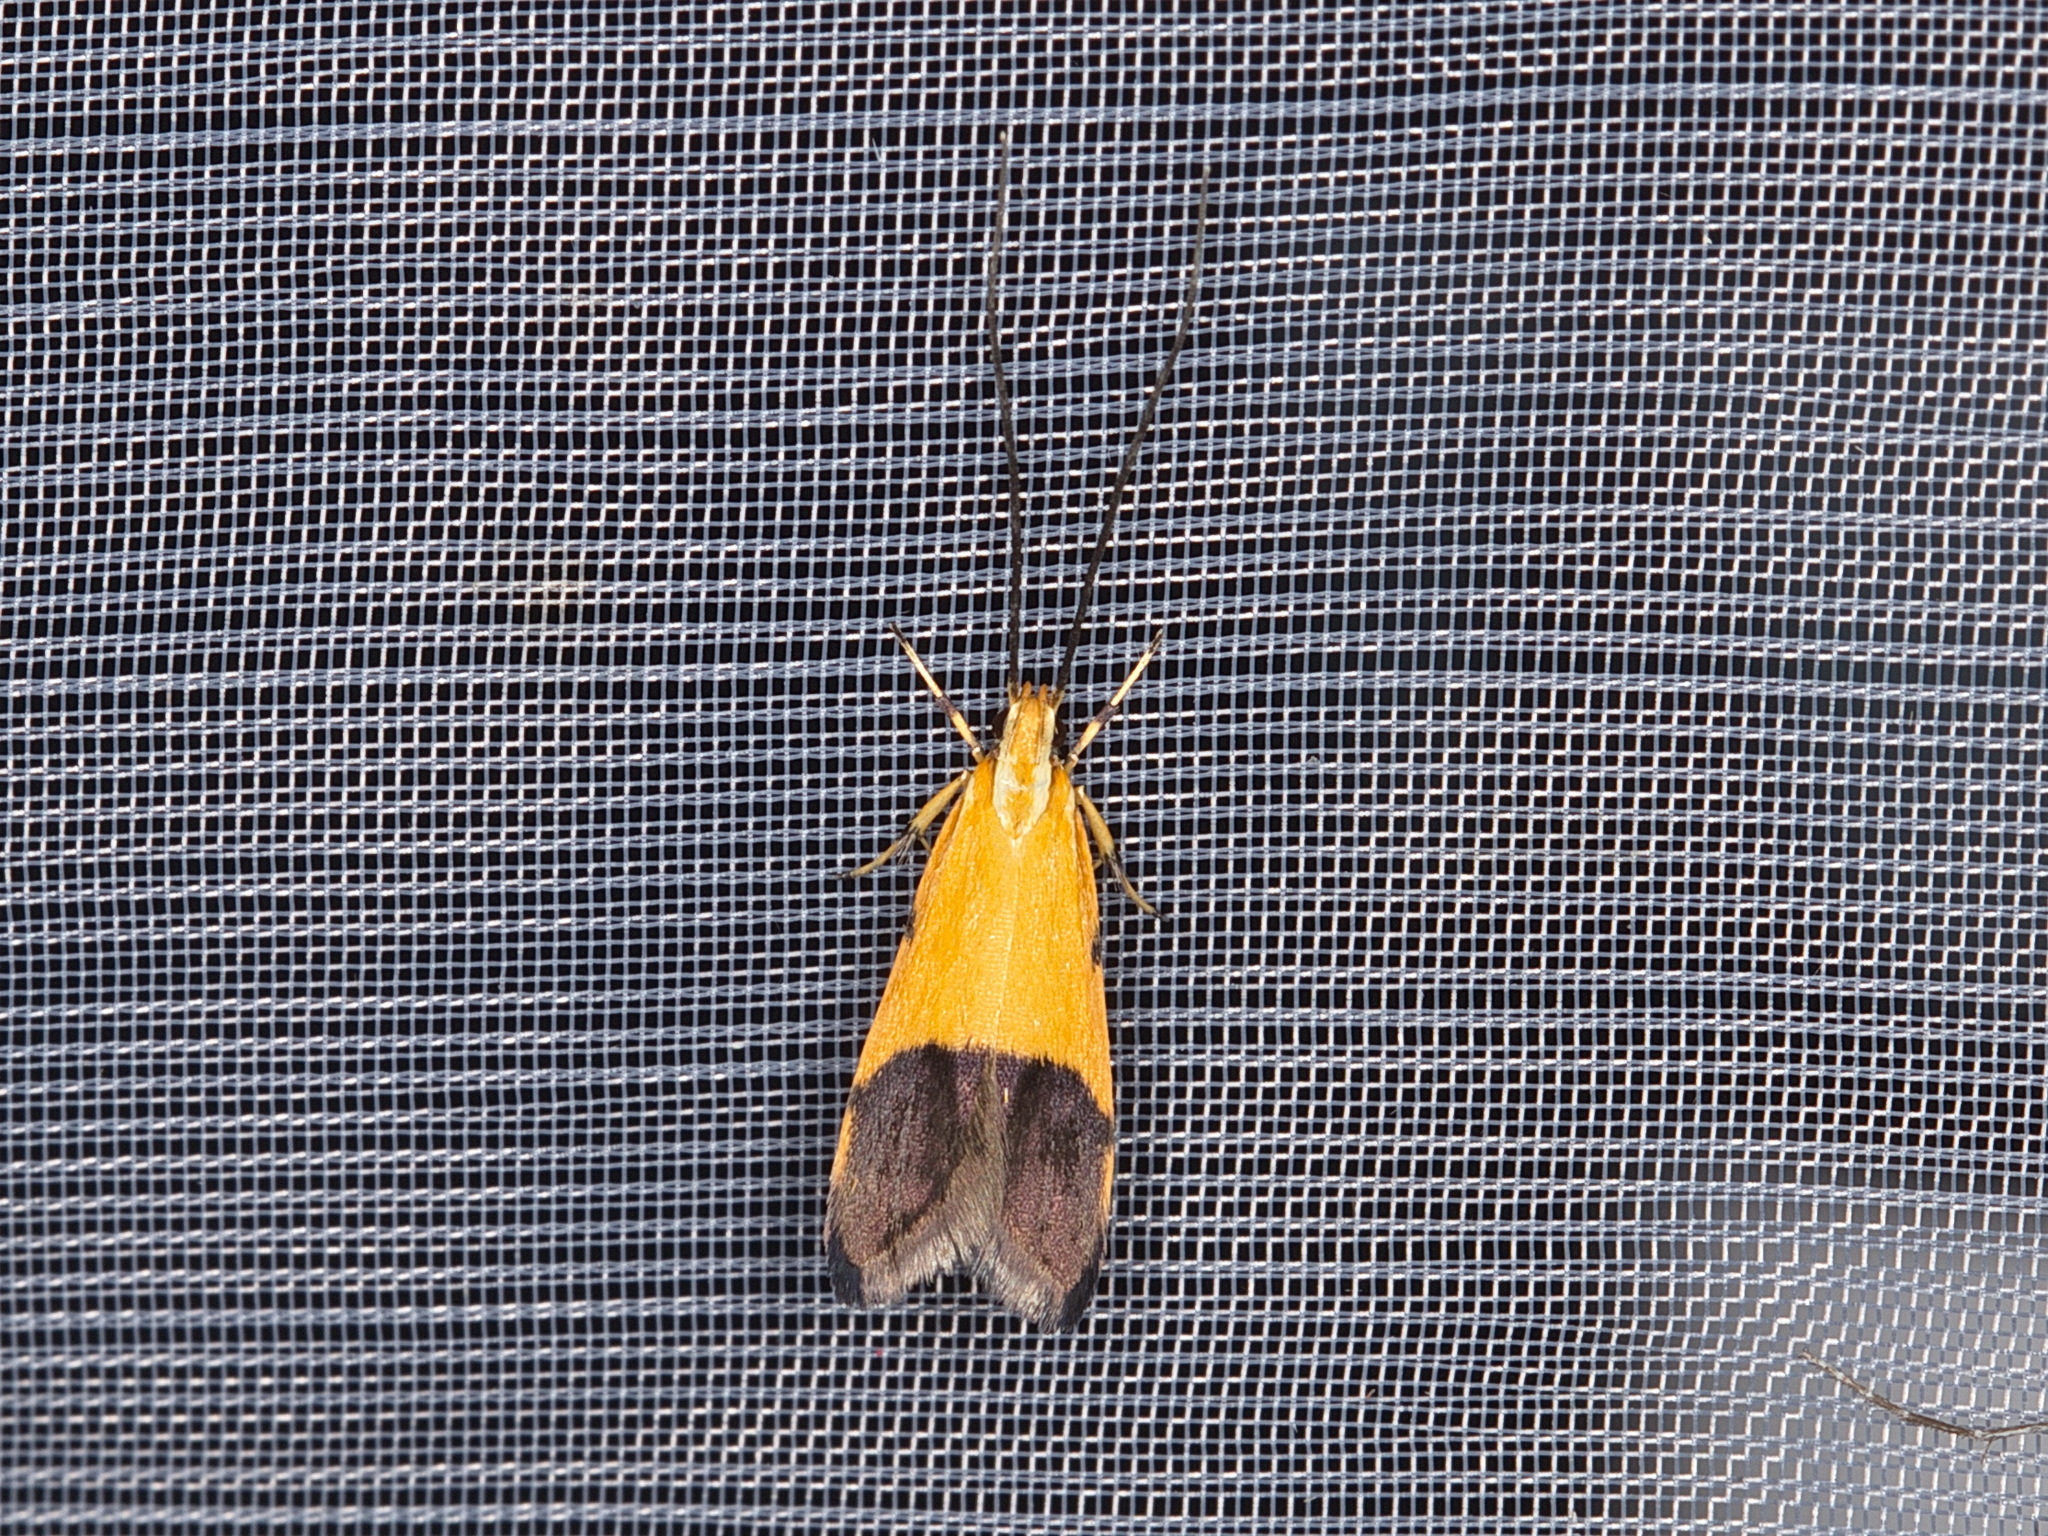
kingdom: Animalia
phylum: Arthropoda
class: Insecta
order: Lepidoptera
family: Lecithoceridae
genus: Crocanthes
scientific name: Crocanthes micradelpha
